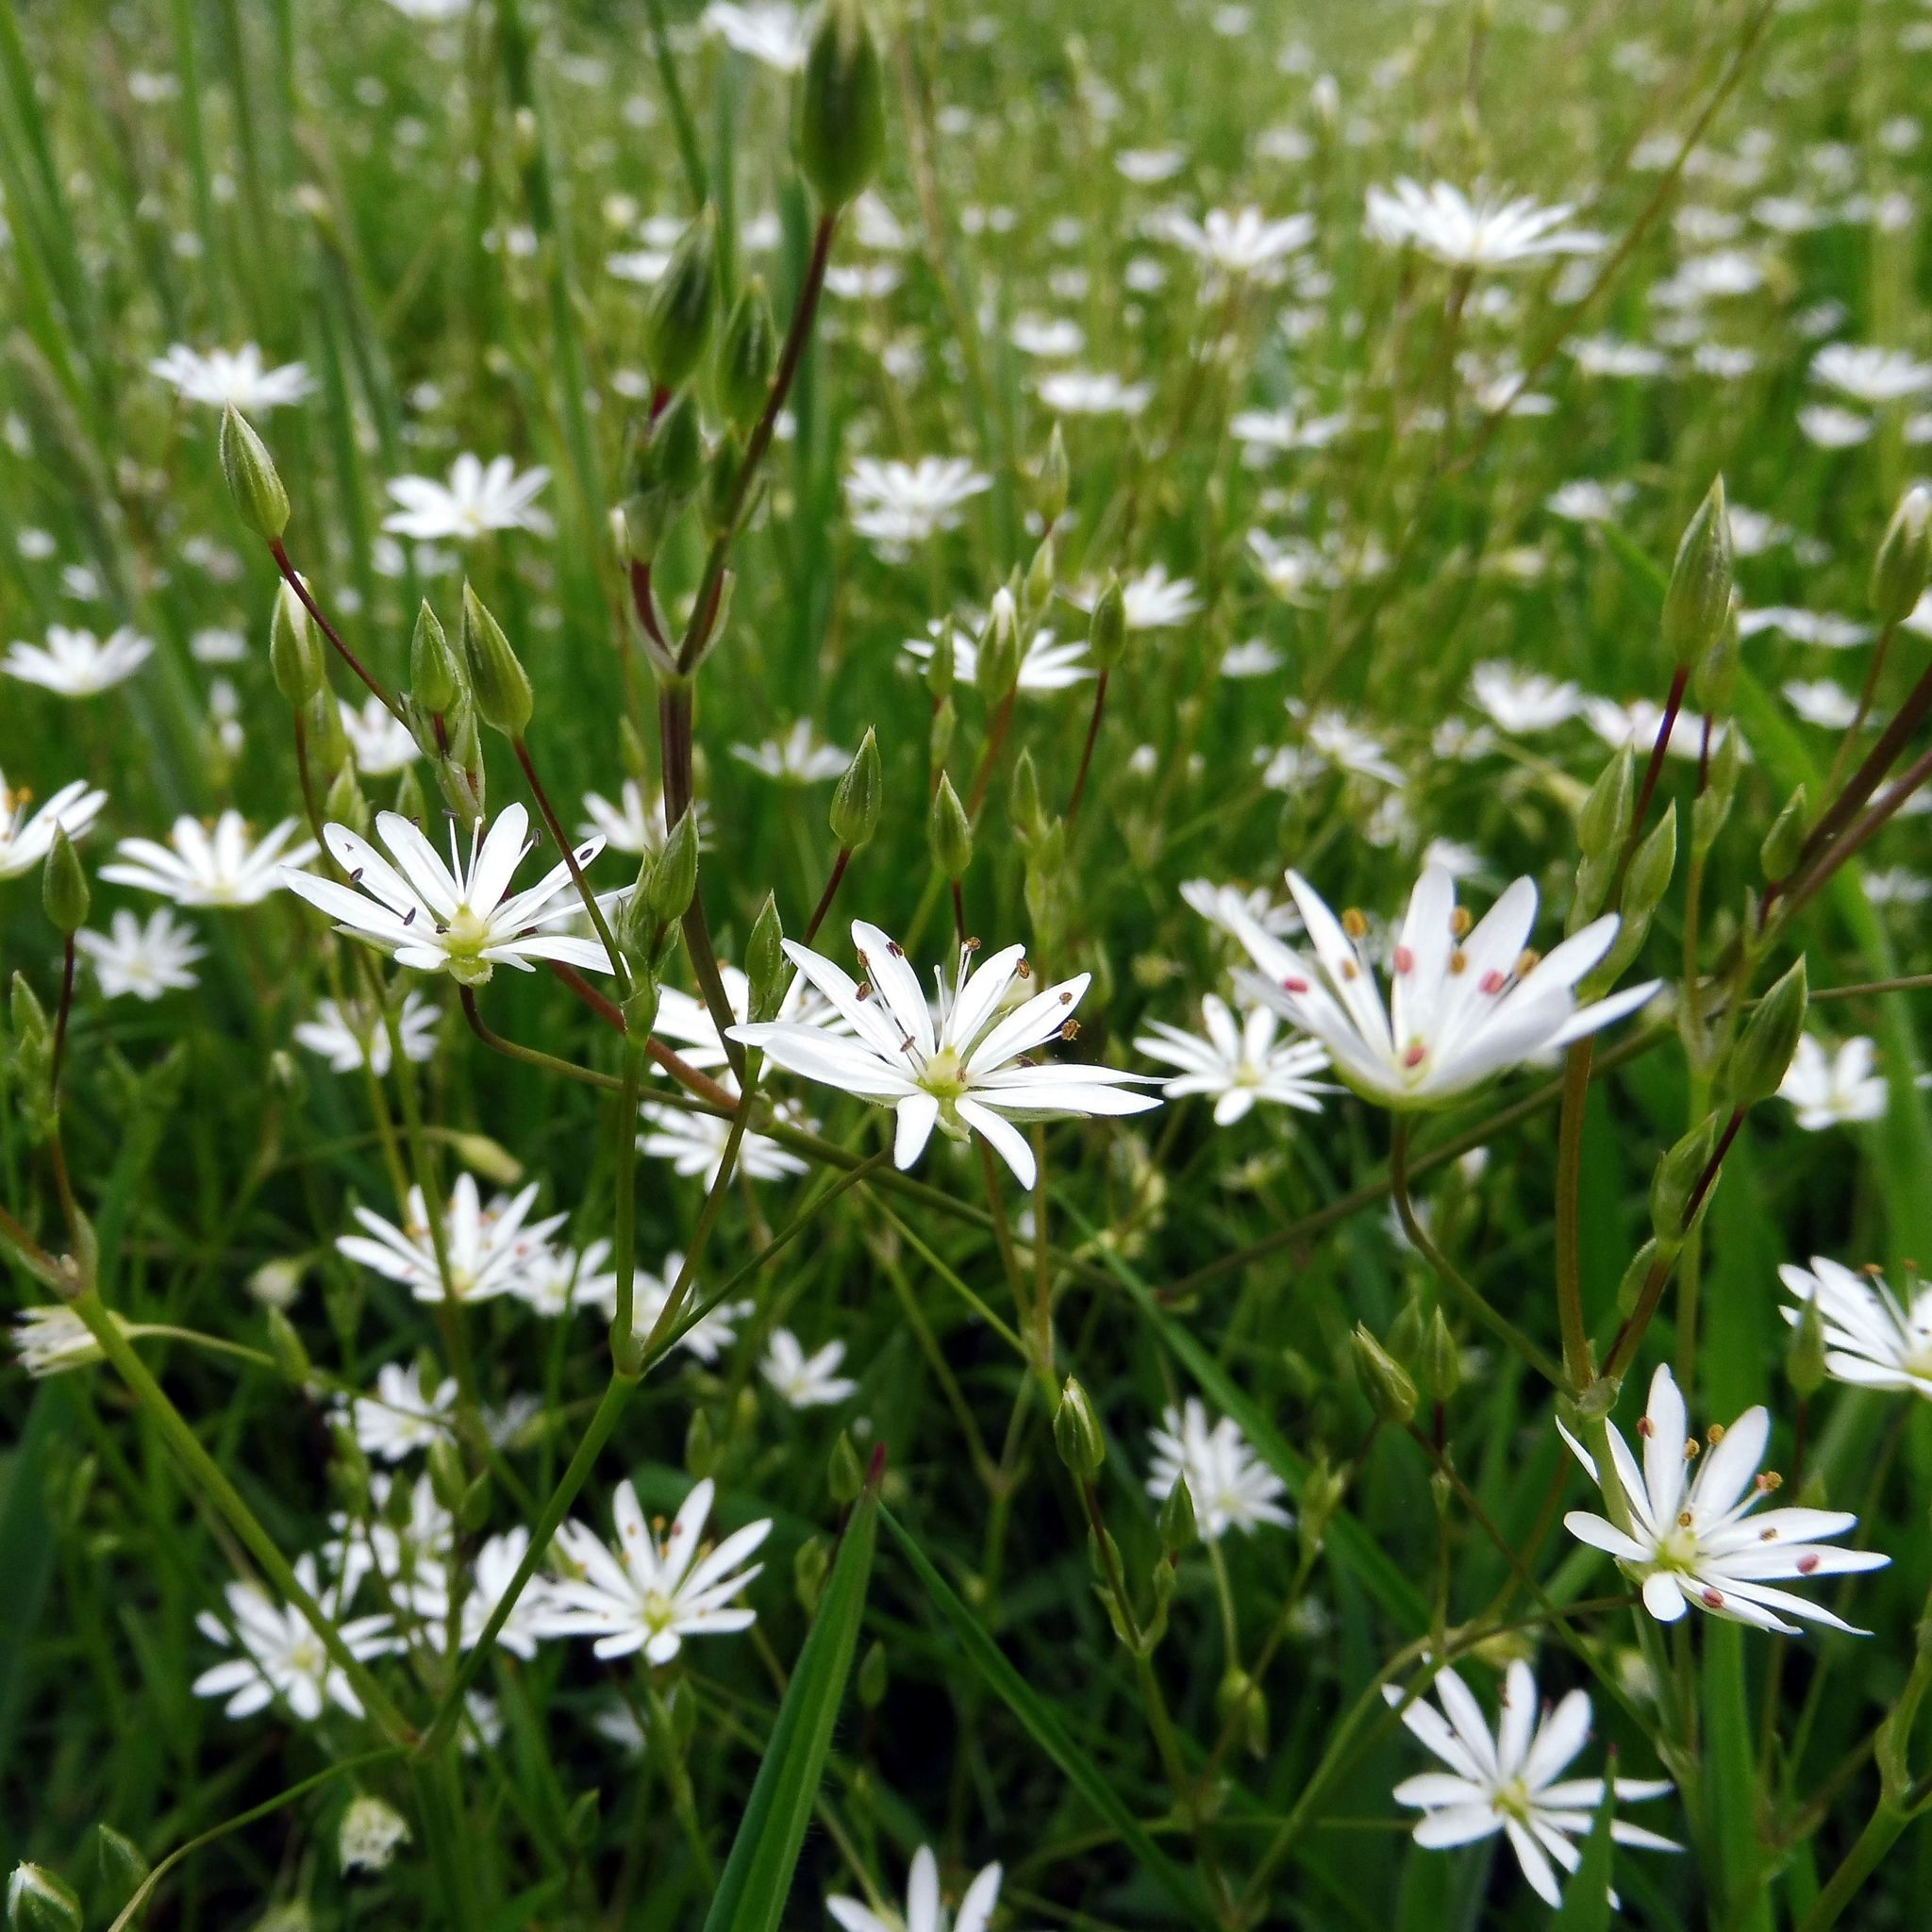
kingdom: Plantae
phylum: Tracheophyta
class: Magnoliopsida
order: Caryophyllales
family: Caryophyllaceae
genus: Stellaria
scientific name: Stellaria graminea
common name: Grass-like starwort
